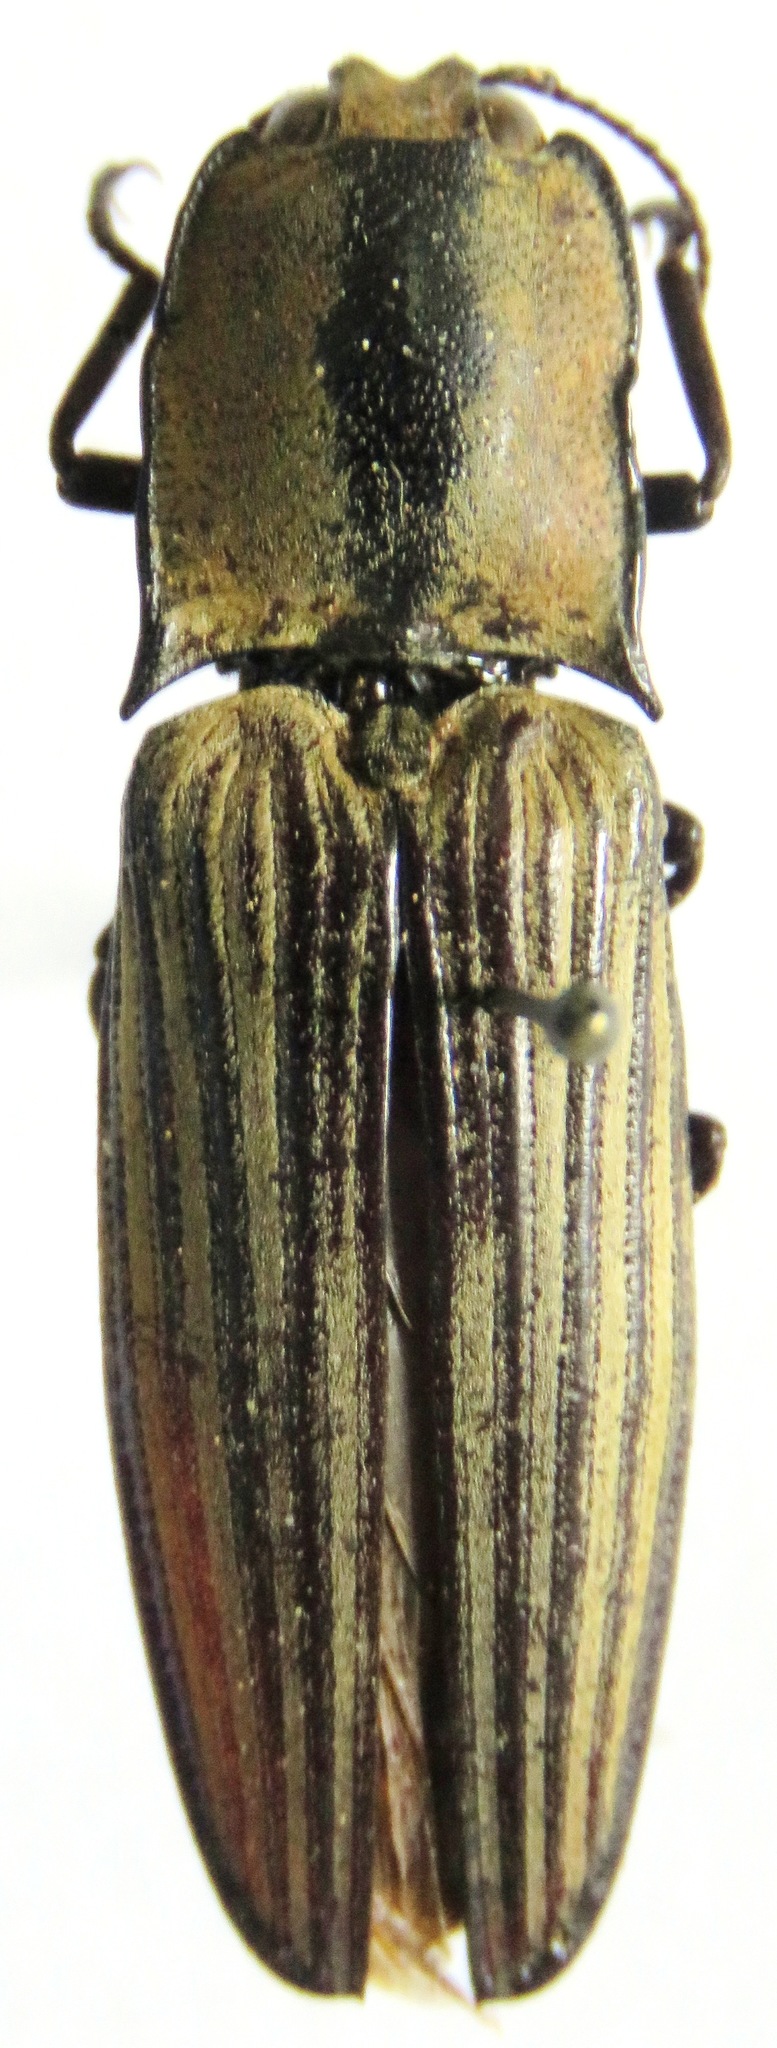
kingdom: Animalia
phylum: Arthropoda
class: Insecta
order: Coleoptera
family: Elateridae
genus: Alaus
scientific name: Alaus
